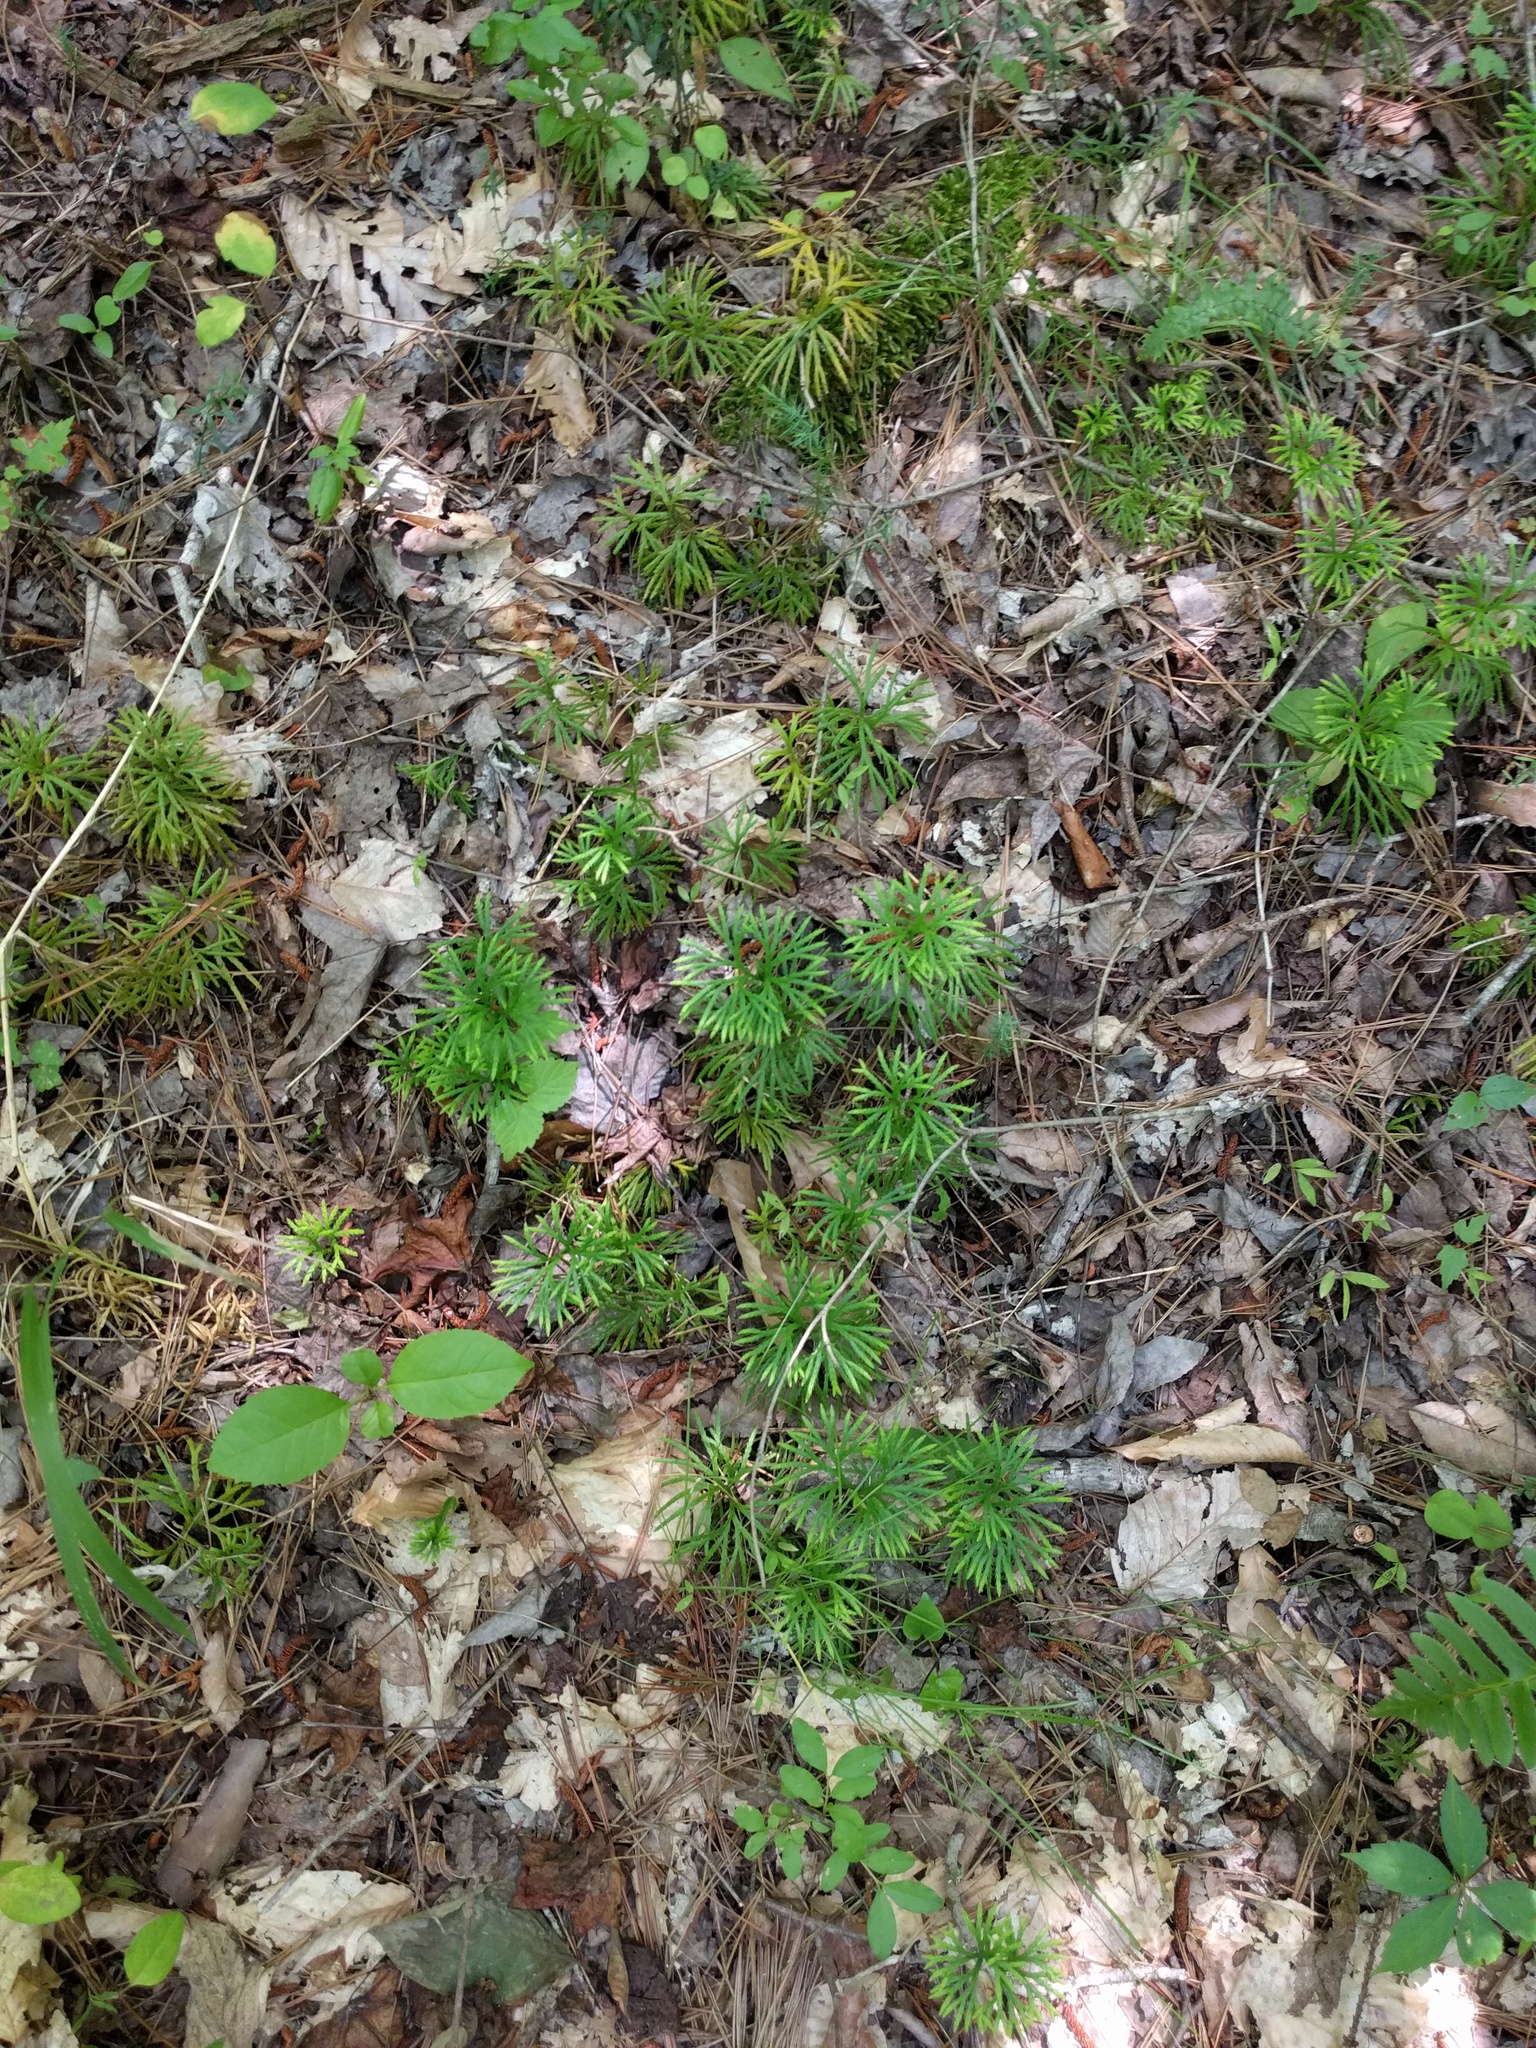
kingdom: Plantae
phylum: Tracheophyta
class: Lycopodiopsida
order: Lycopodiales
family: Lycopodiaceae
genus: Diphasiastrum
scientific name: Diphasiastrum digitatum
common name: Southern running-pine
